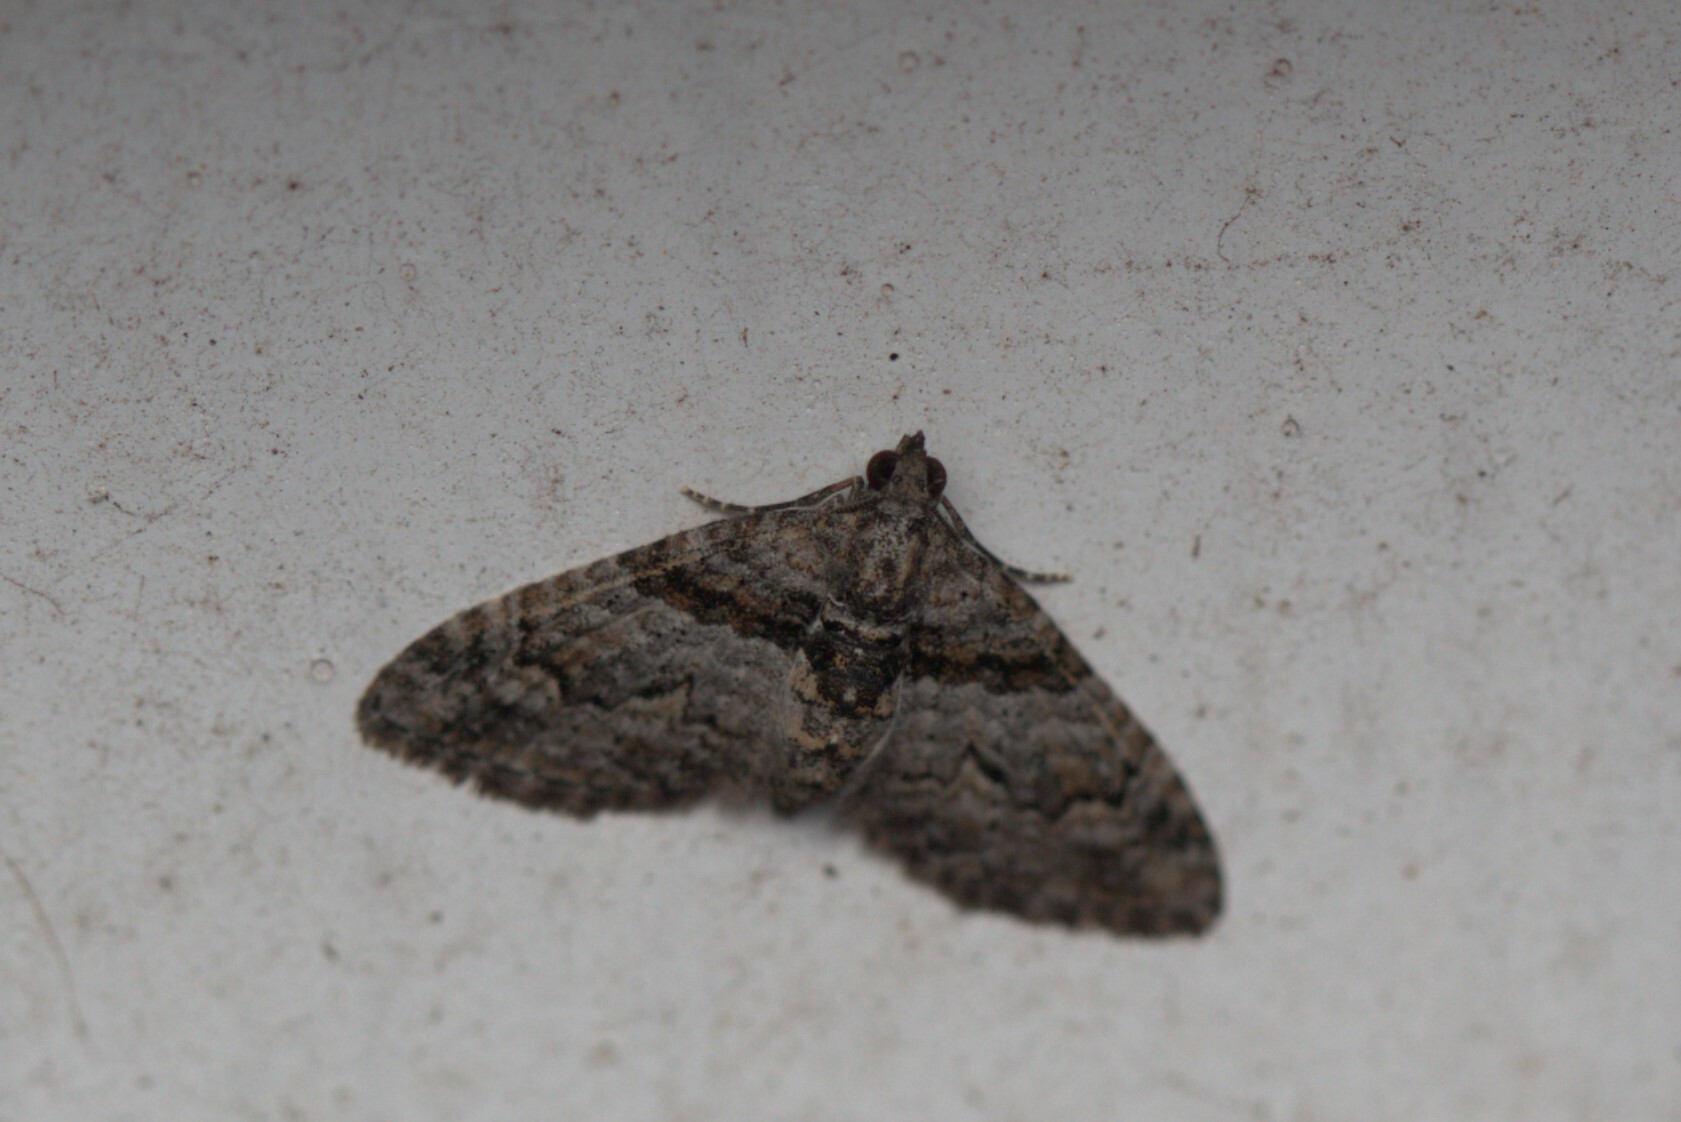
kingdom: Animalia
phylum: Arthropoda
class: Insecta
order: Lepidoptera
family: Geometridae
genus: Phrissogonus
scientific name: Phrissogonus laticostata
